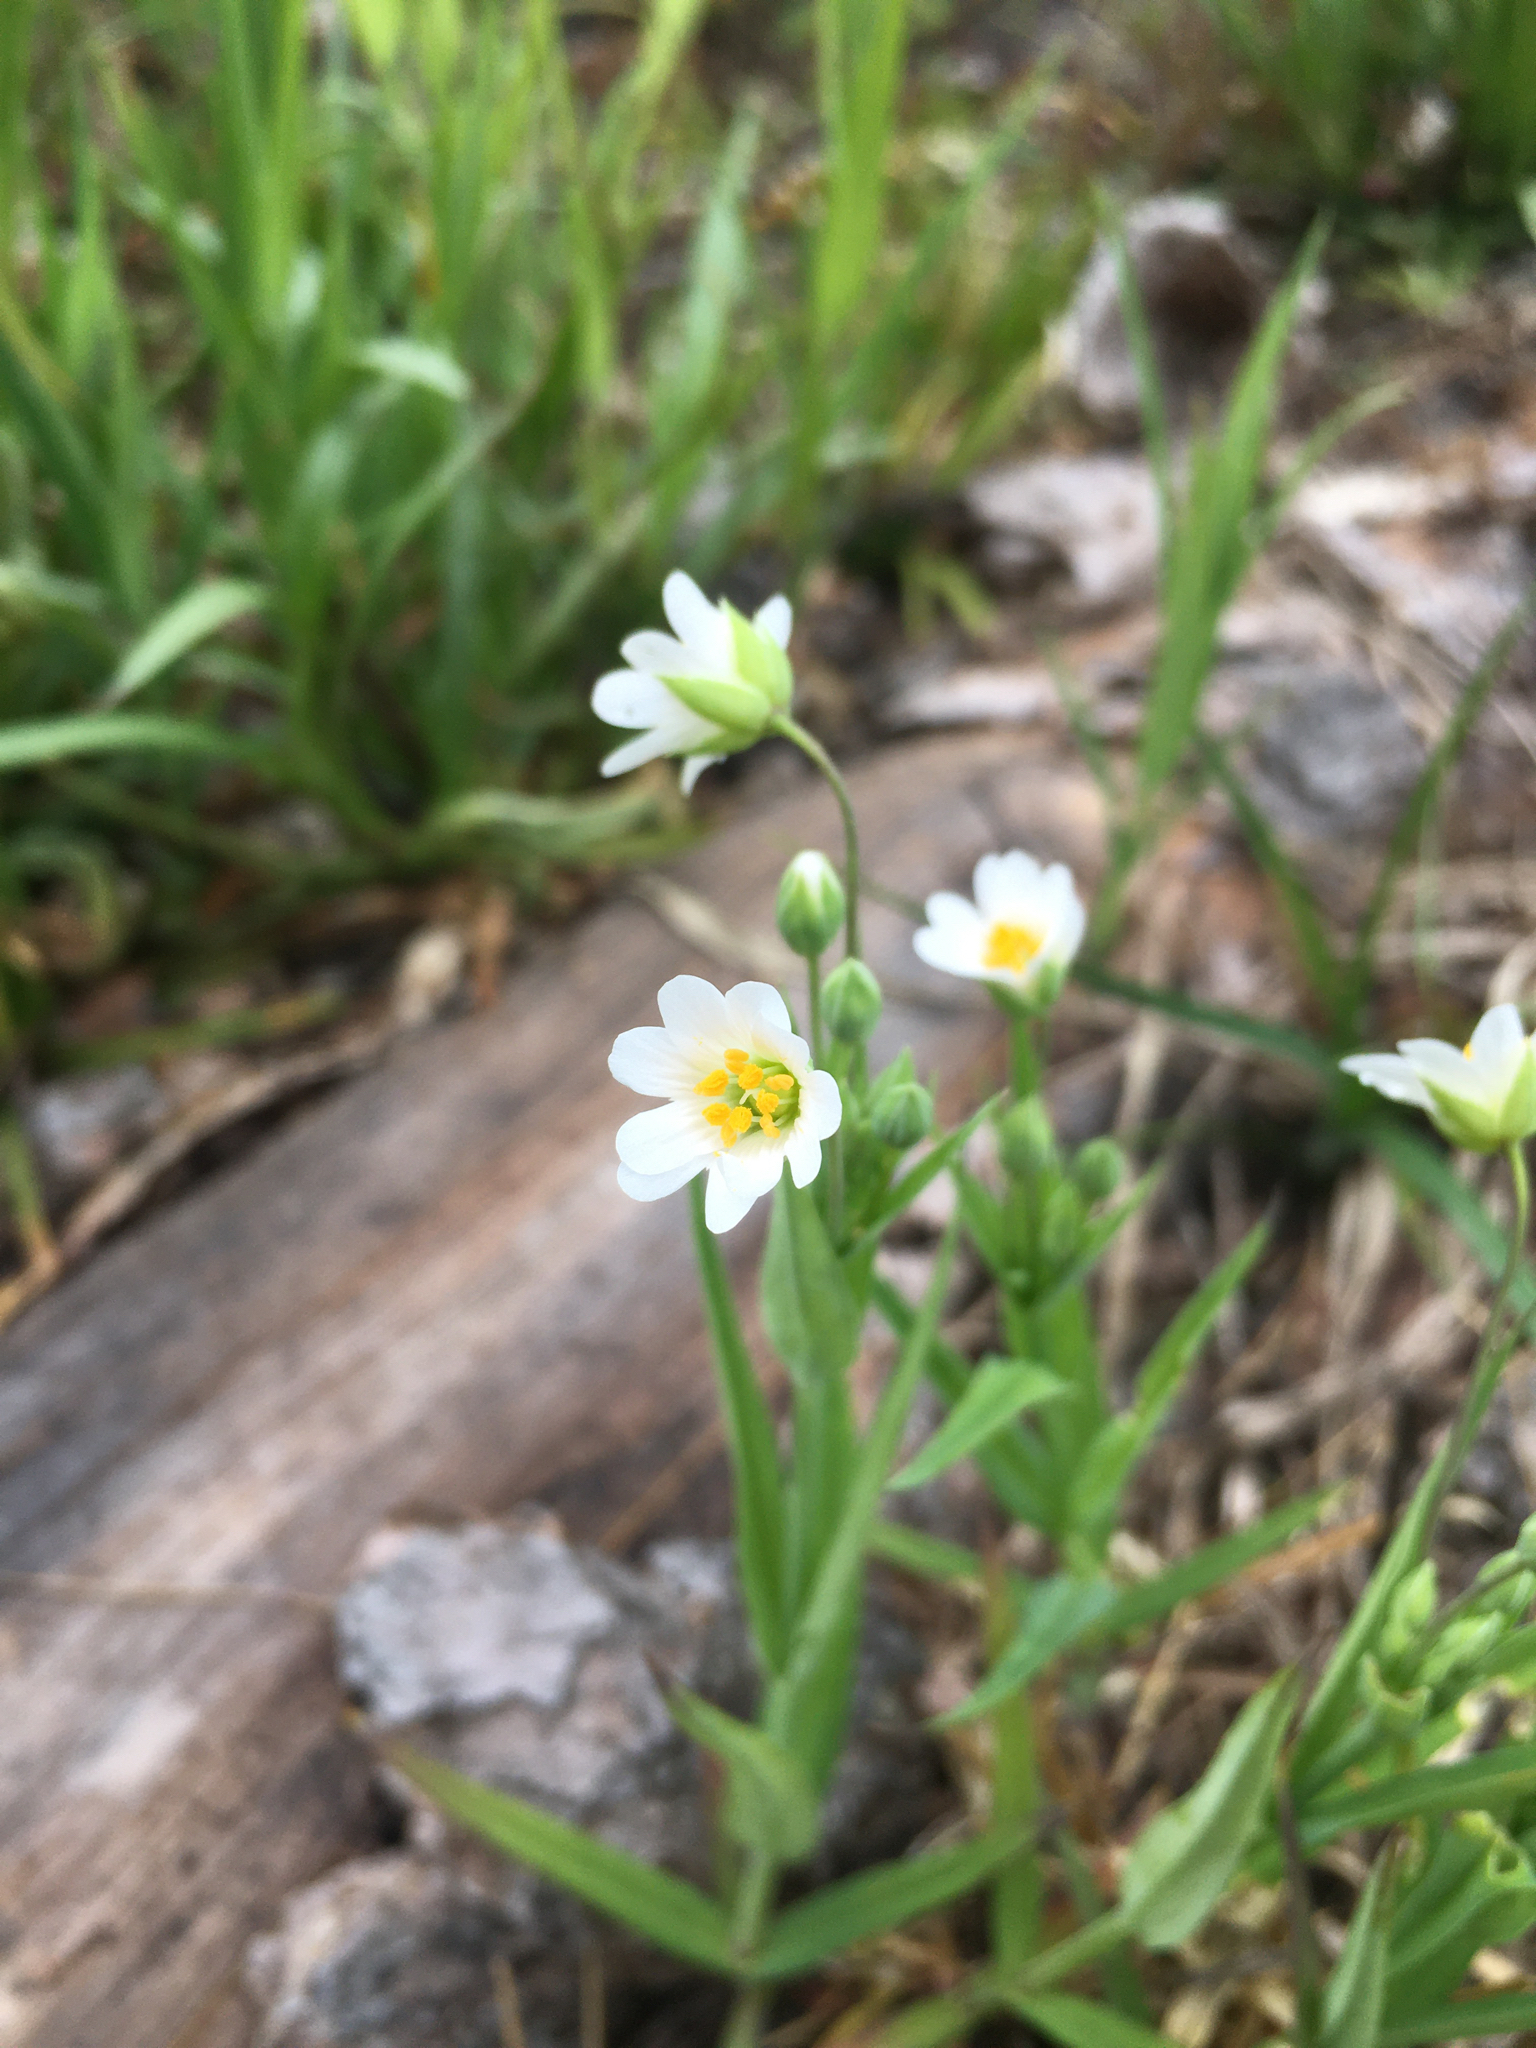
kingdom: Plantae
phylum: Tracheophyta
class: Magnoliopsida
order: Caryophyllales
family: Caryophyllaceae
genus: Rabelera
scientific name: Rabelera holostea
